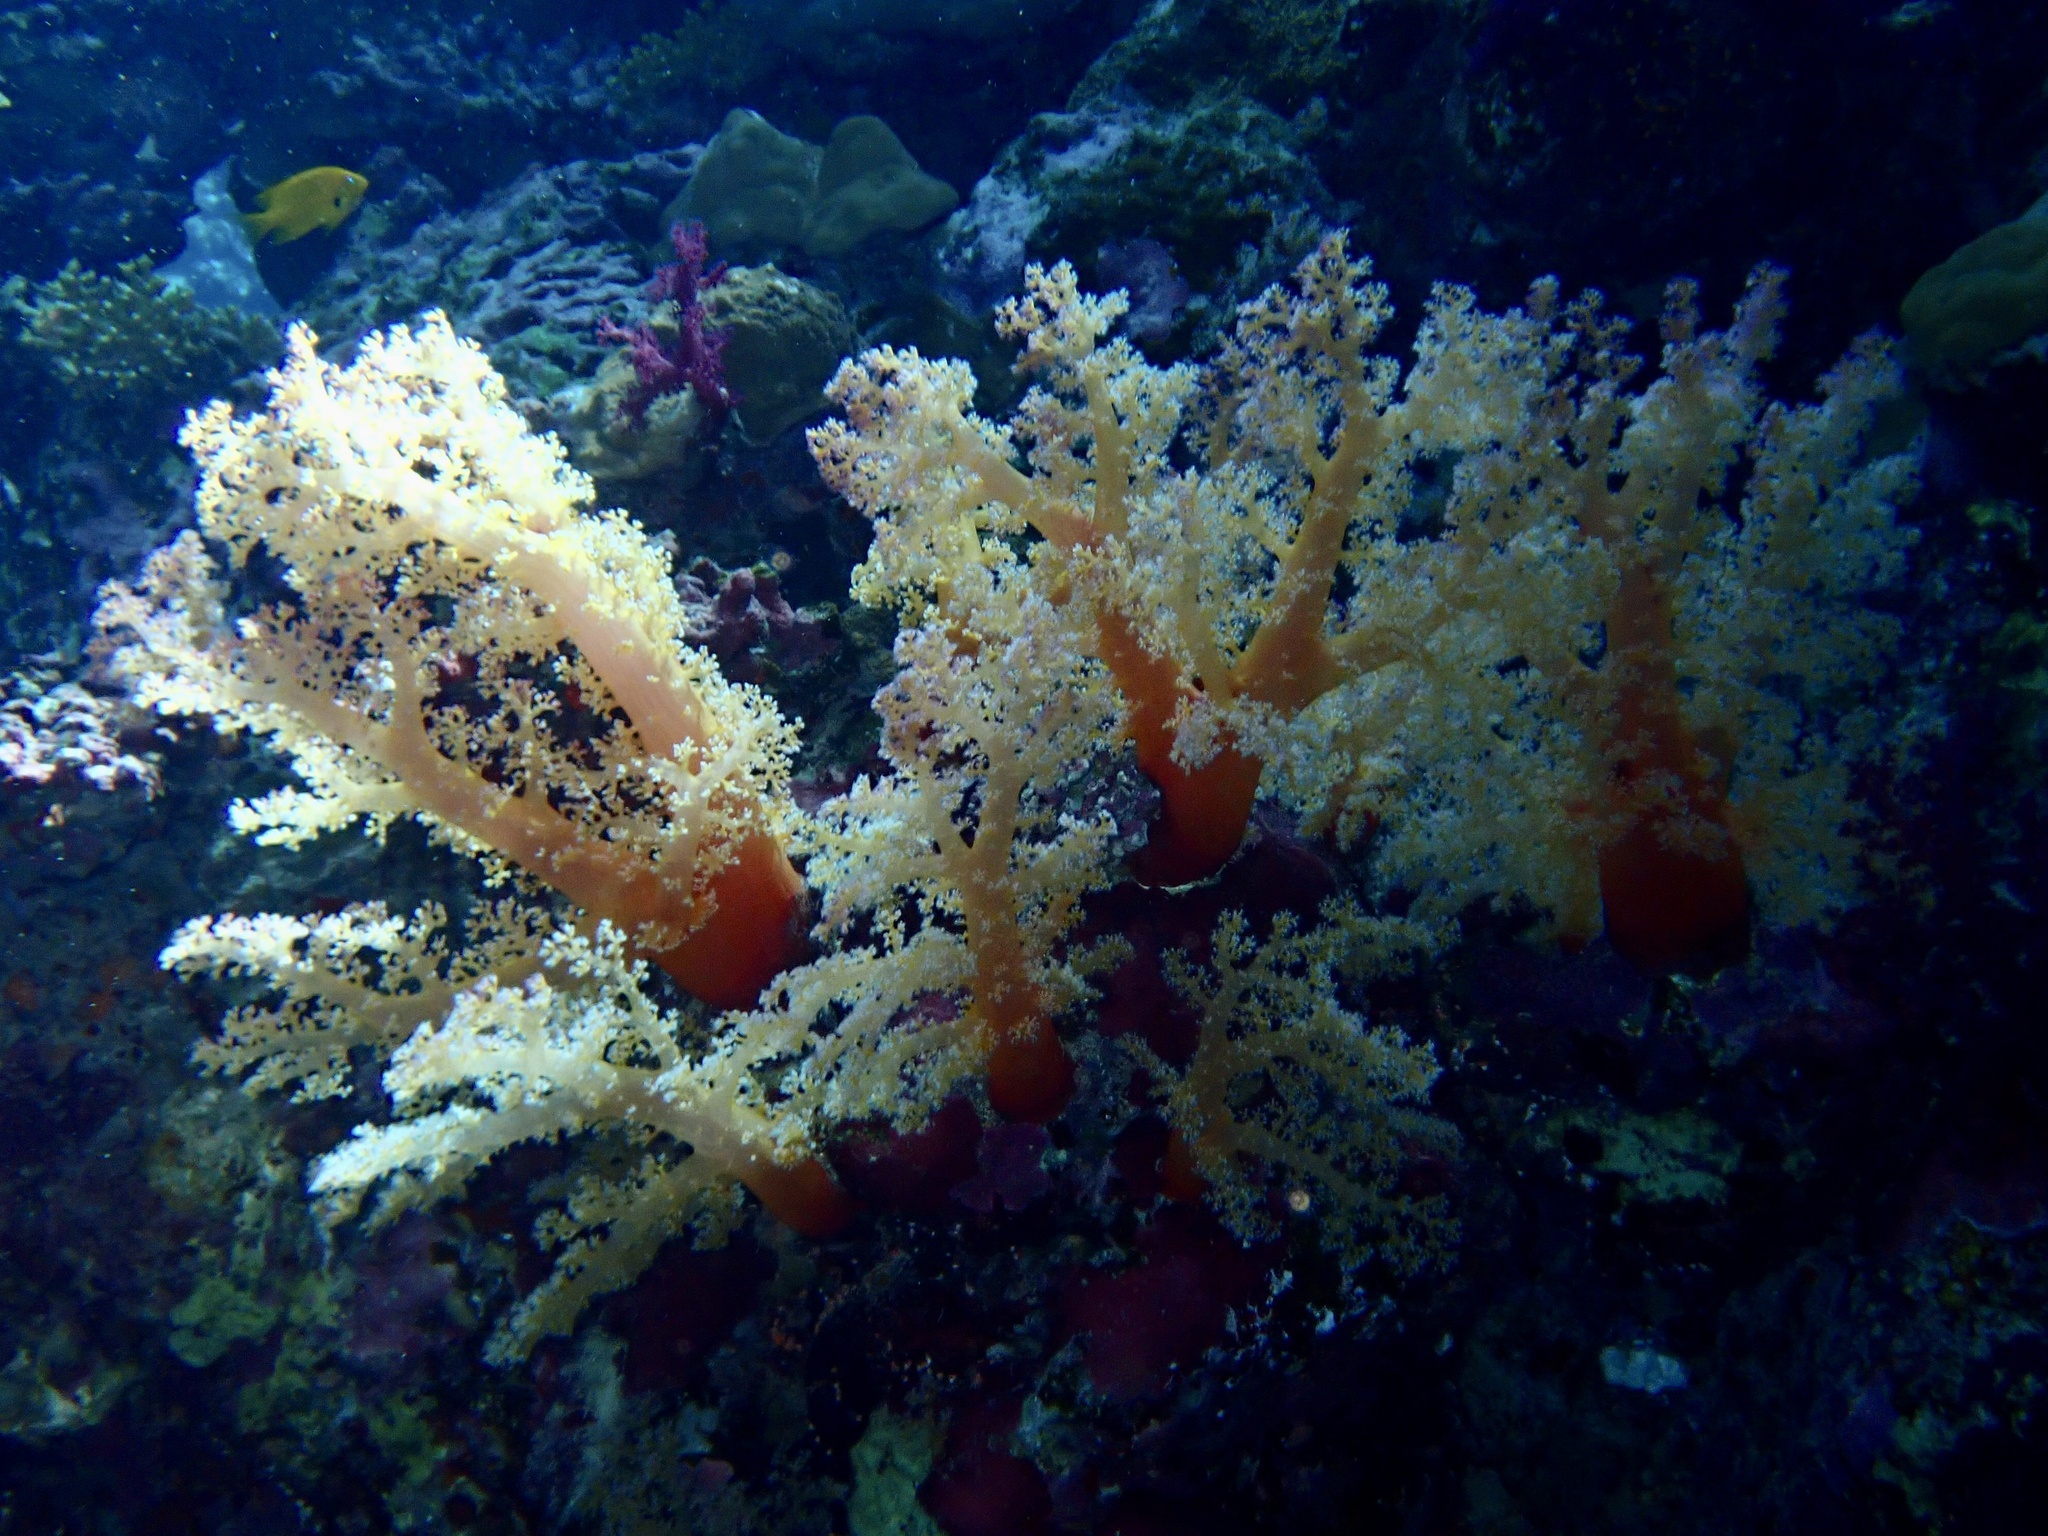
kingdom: Animalia
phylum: Cnidaria
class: Anthozoa
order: Malacalcyonacea
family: Nephtheidae
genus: Dendronephthya
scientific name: Dendronephthya hemprichi
